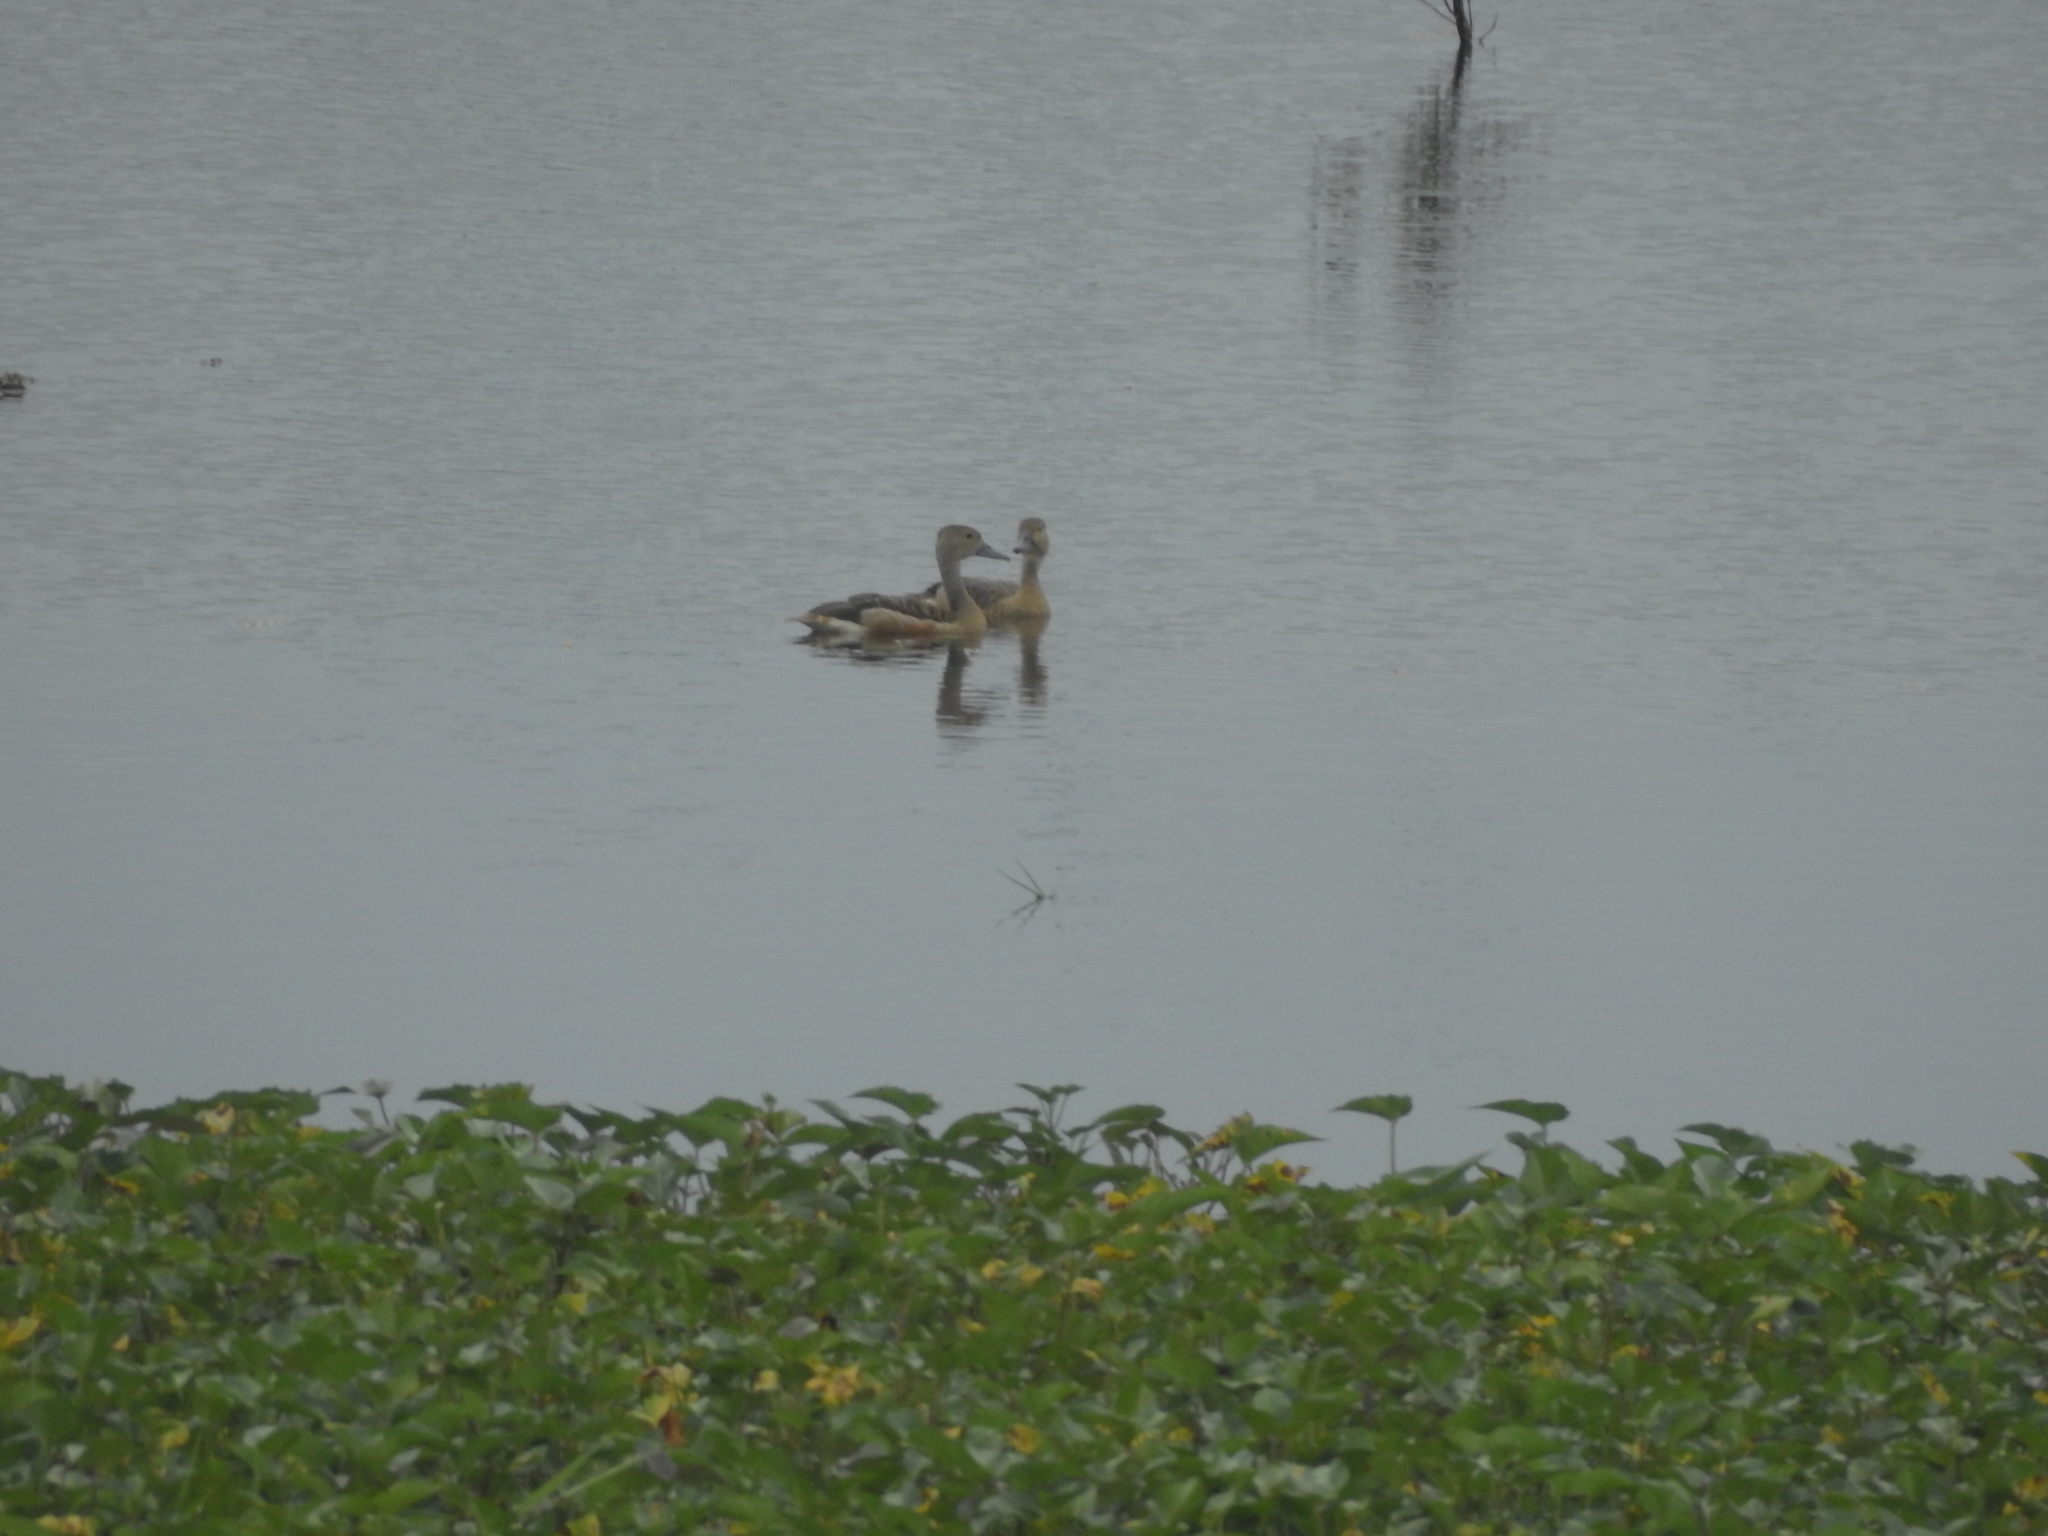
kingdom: Animalia
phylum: Chordata
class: Aves
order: Anseriformes
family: Anatidae
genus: Dendrocygna
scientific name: Dendrocygna javanica
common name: Lesser whistling-duck
